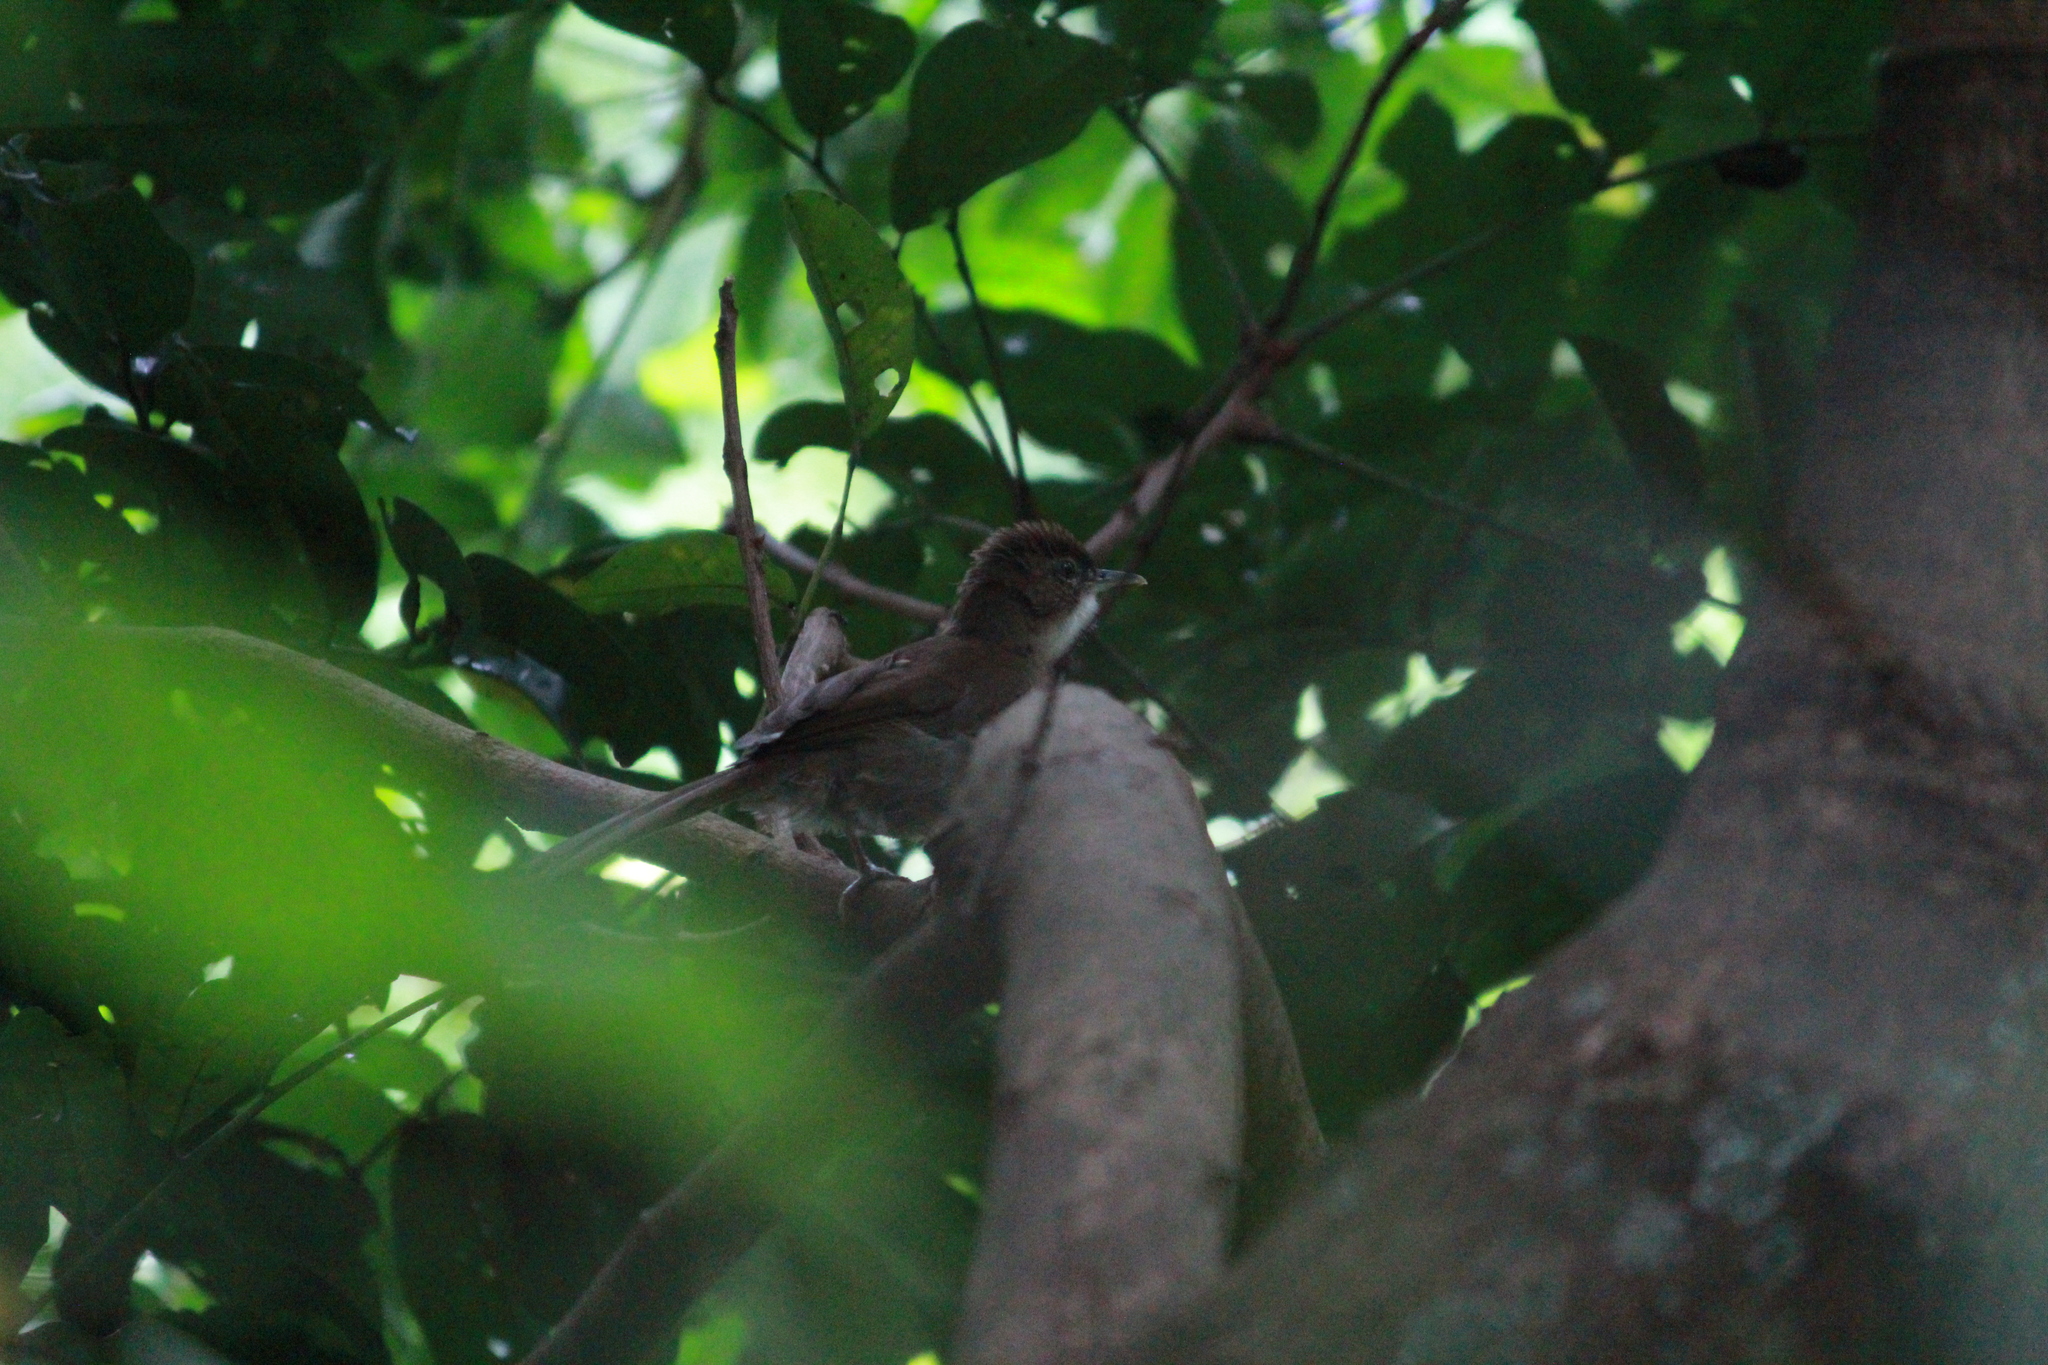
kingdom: Animalia
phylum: Chordata
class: Aves
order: Passeriformes
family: Pycnonotidae
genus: Phyllastrephus
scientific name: Phyllastrephus terrestris
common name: Terrestrial brownbul
